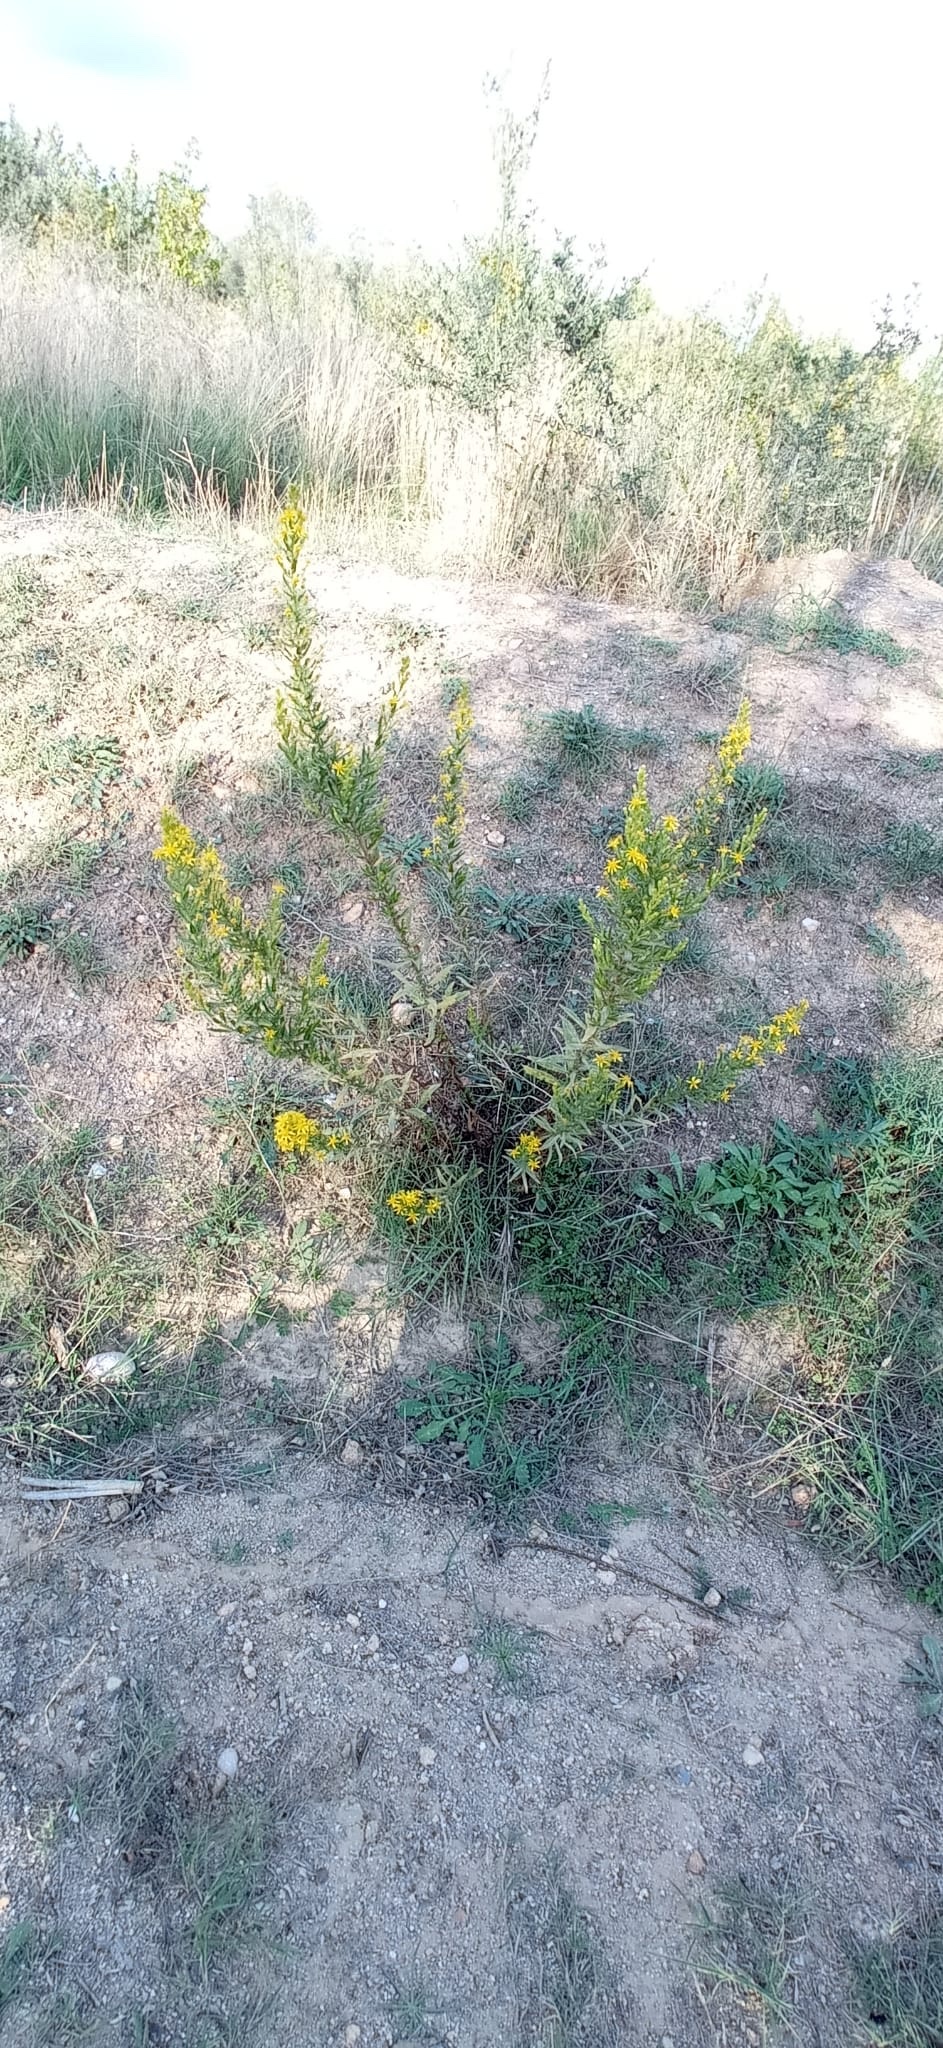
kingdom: Plantae
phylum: Tracheophyta
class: Magnoliopsida
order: Asterales
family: Asteraceae
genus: Dittrichia
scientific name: Dittrichia viscosa
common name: Woody fleabane
